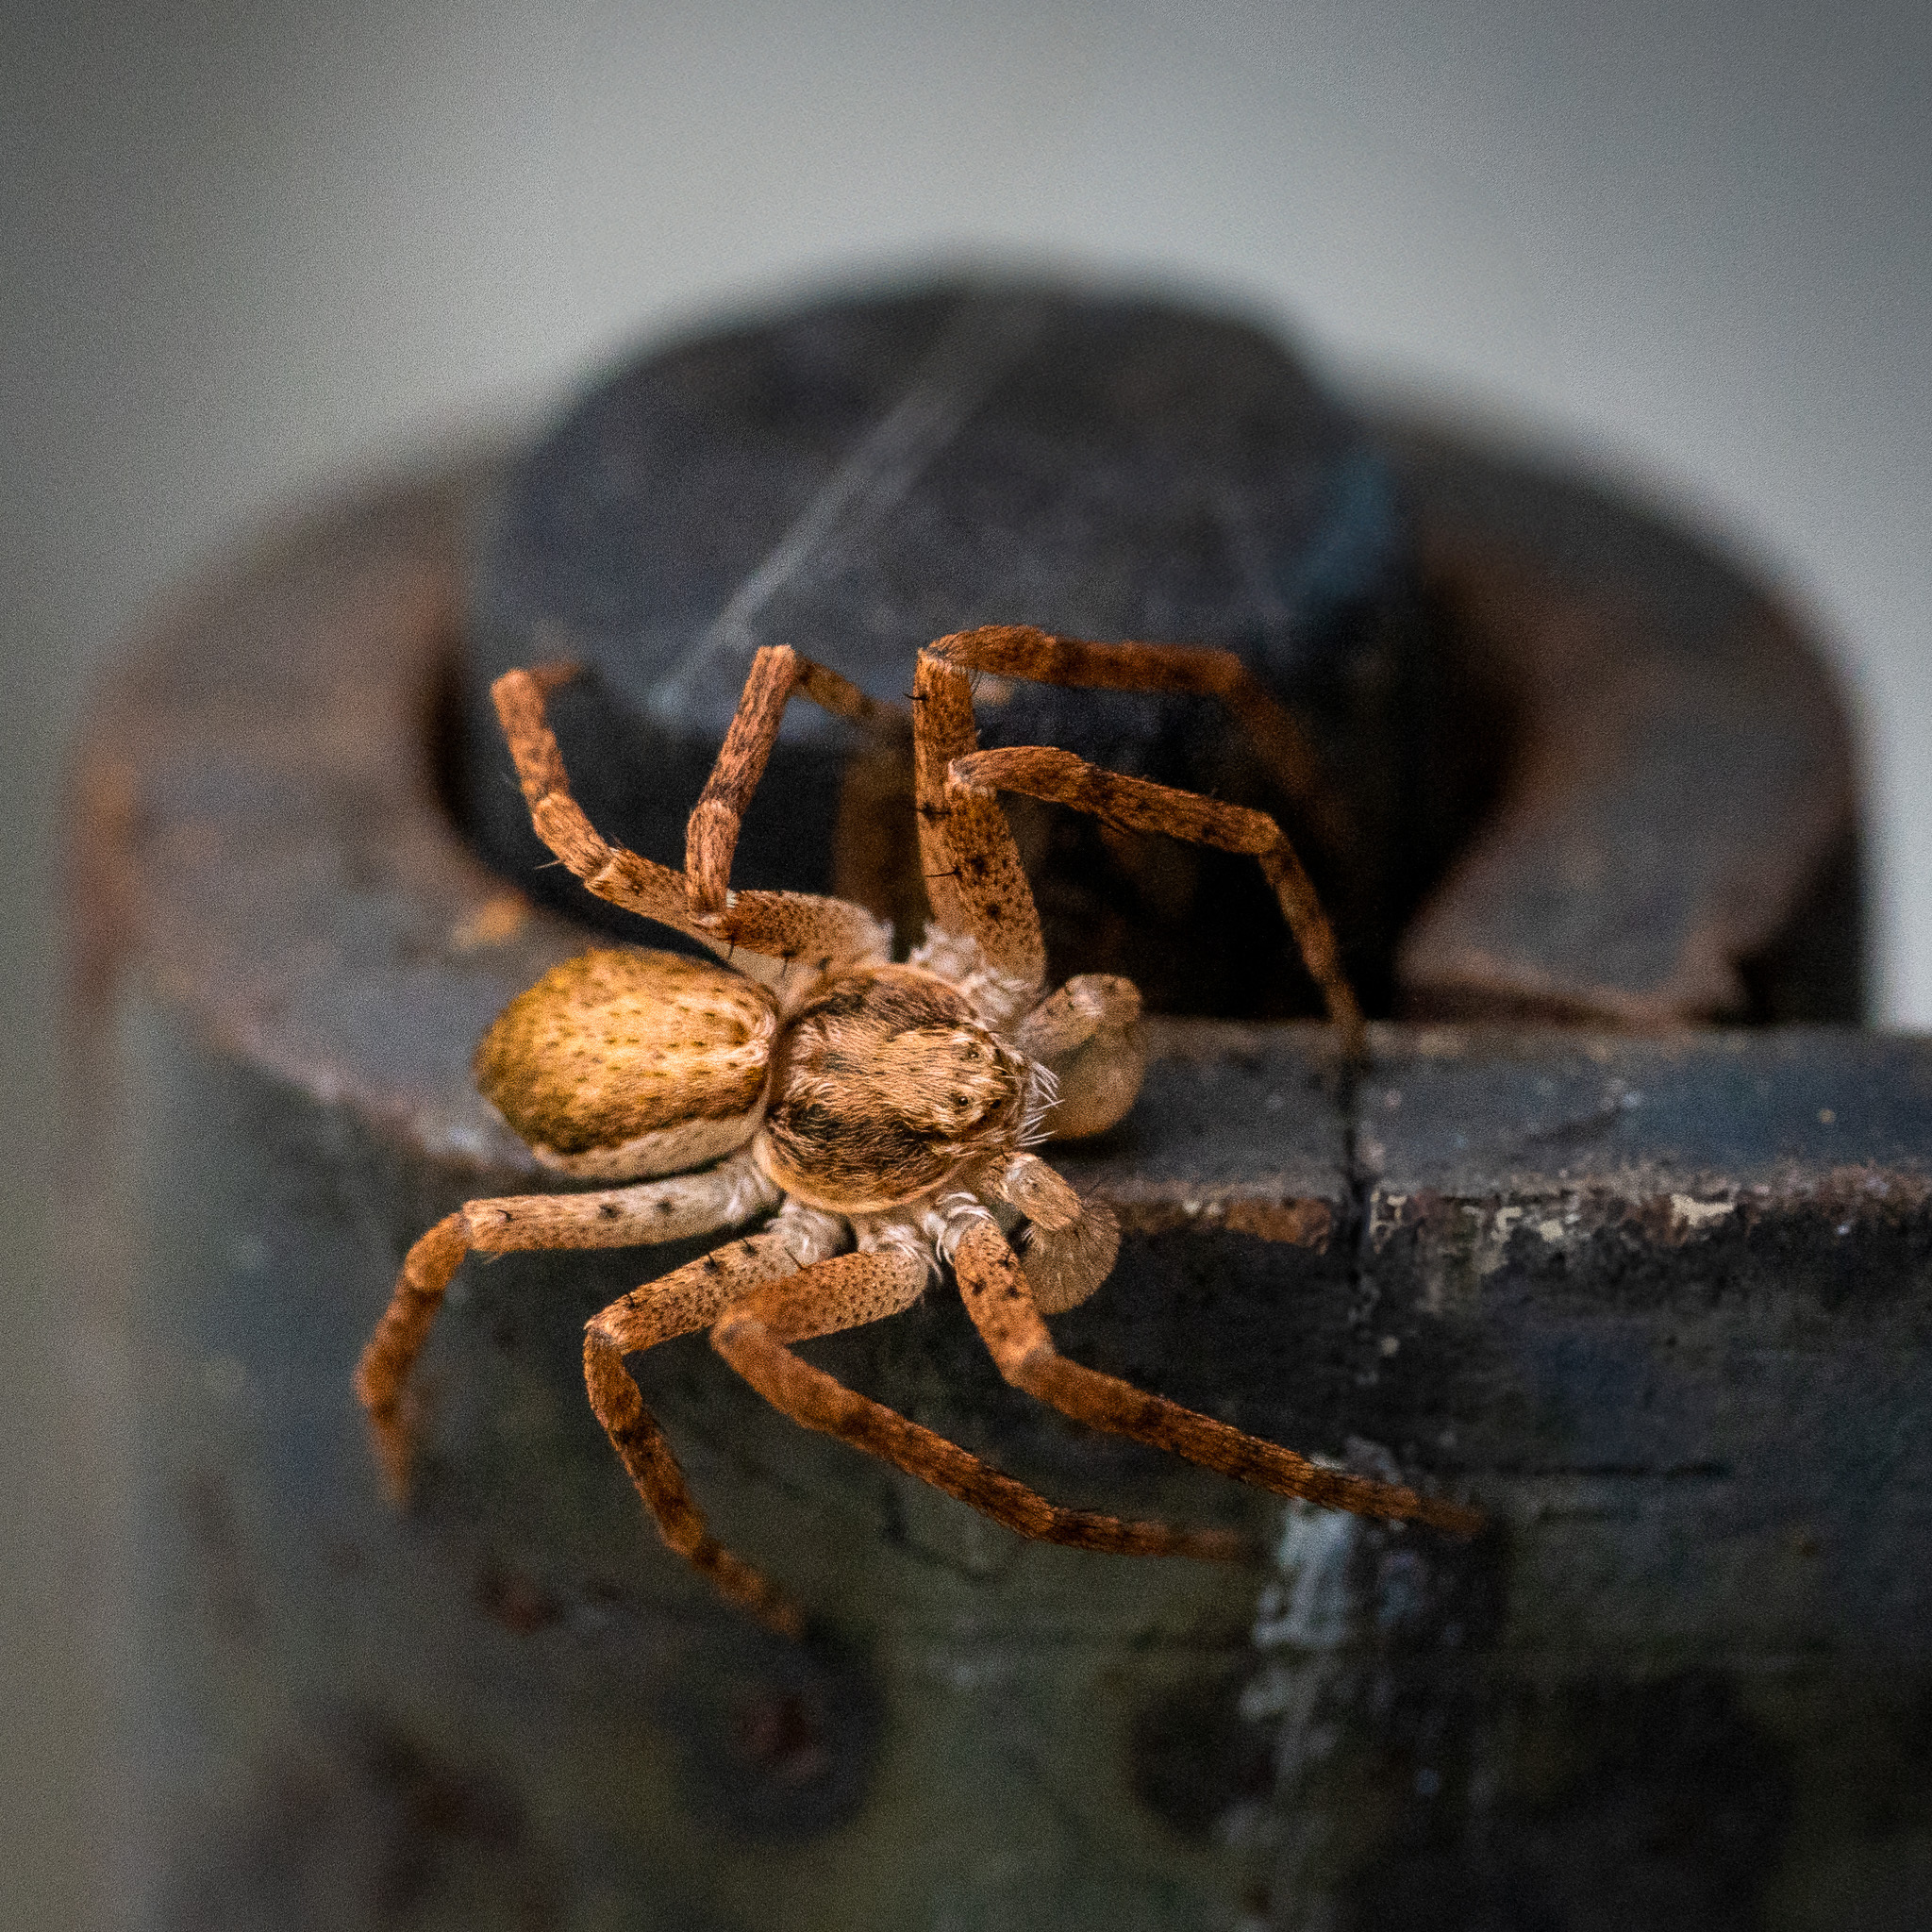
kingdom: Animalia
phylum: Arthropoda
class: Arachnida
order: Araneae
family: Philodromidae
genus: Philodromus
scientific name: Philodromus dispar
